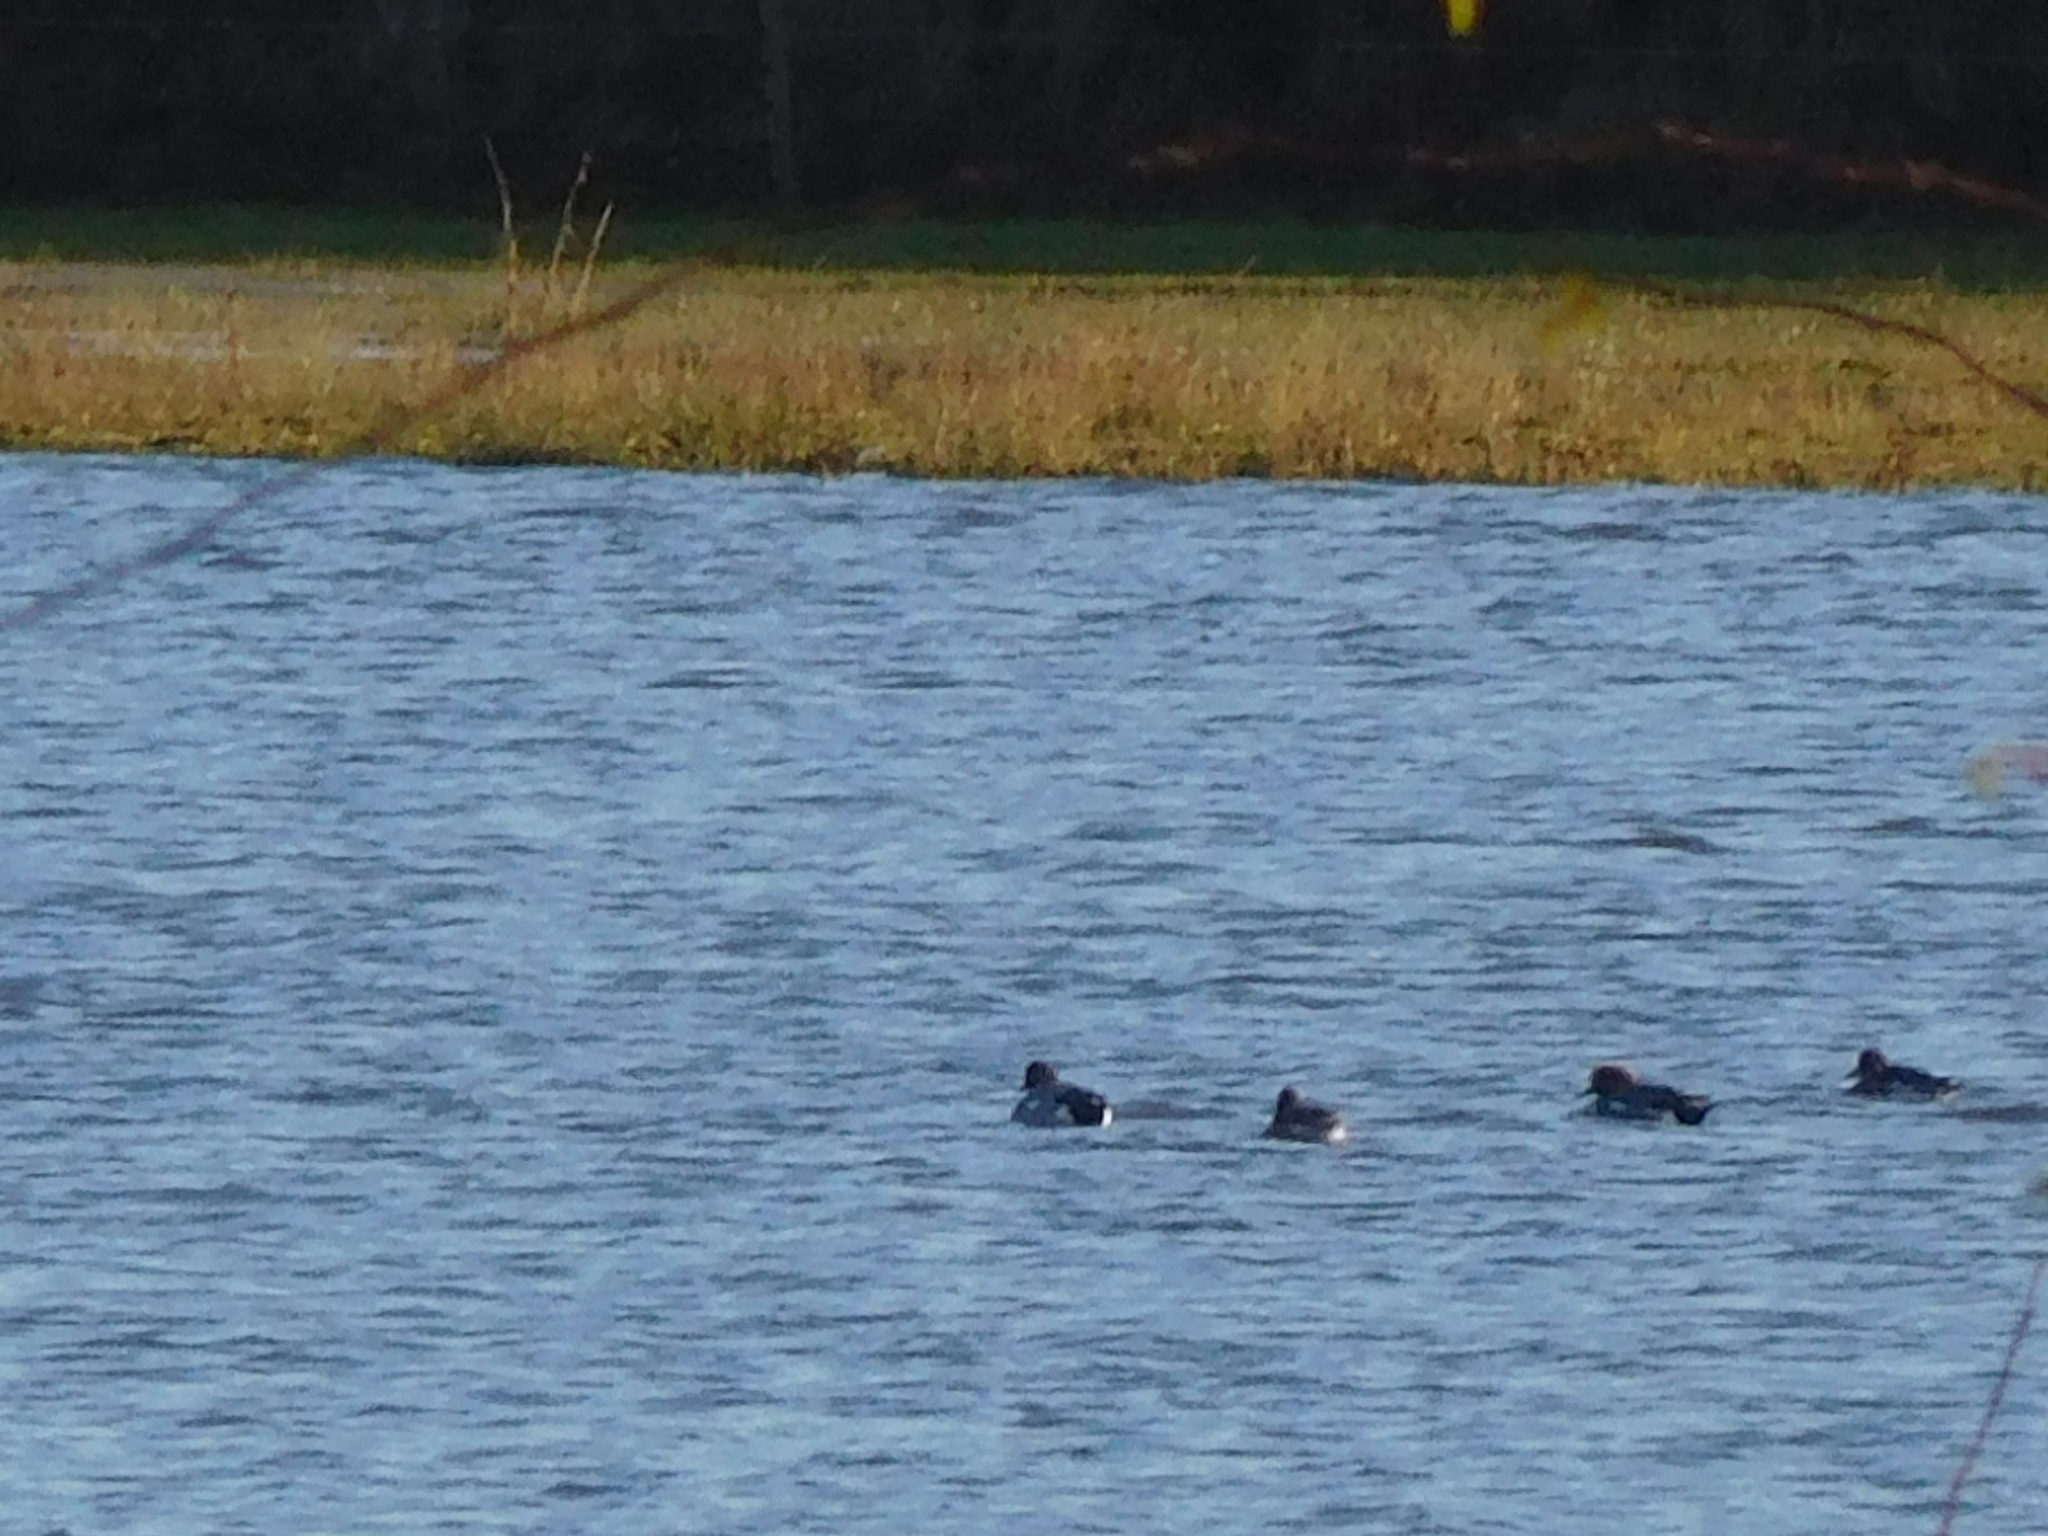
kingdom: Animalia
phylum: Chordata
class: Aves
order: Anseriformes
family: Anatidae
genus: Mareca
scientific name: Mareca penelope
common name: Eurasian wigeon
